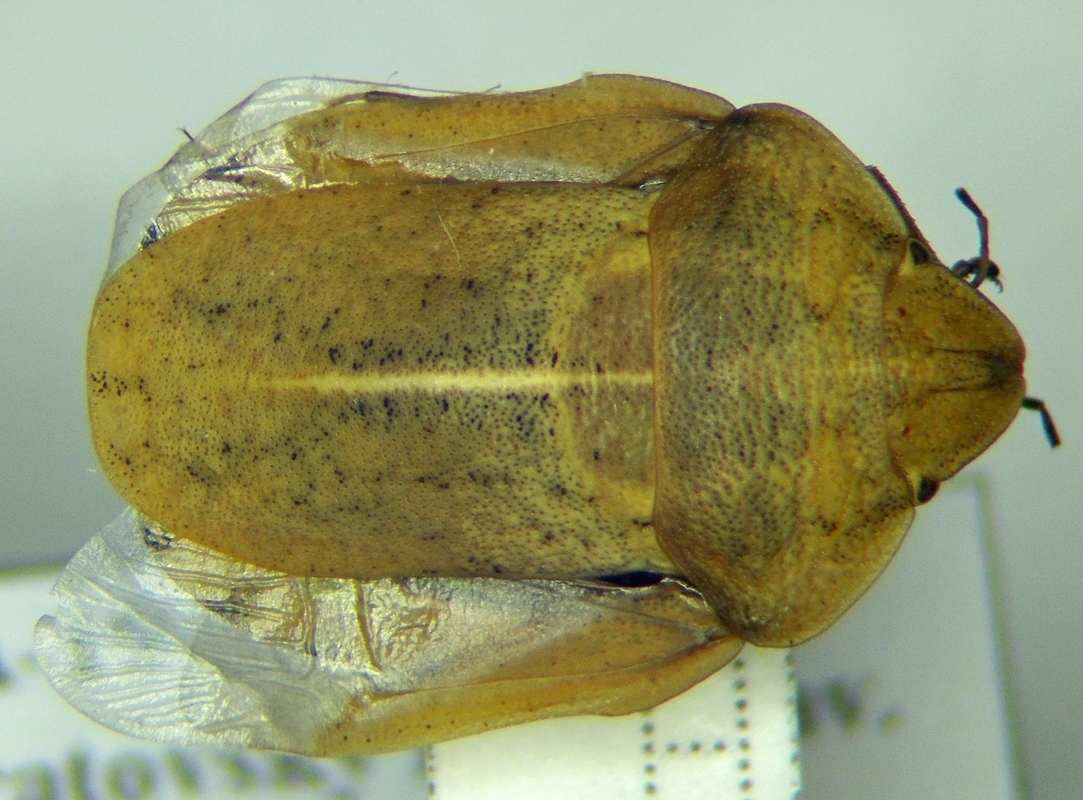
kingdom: Animalia
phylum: Arthropoda
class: Insecta
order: Hemiptera
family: Scutelleridae
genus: Eurygaster
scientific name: Eurygaster integriceps
